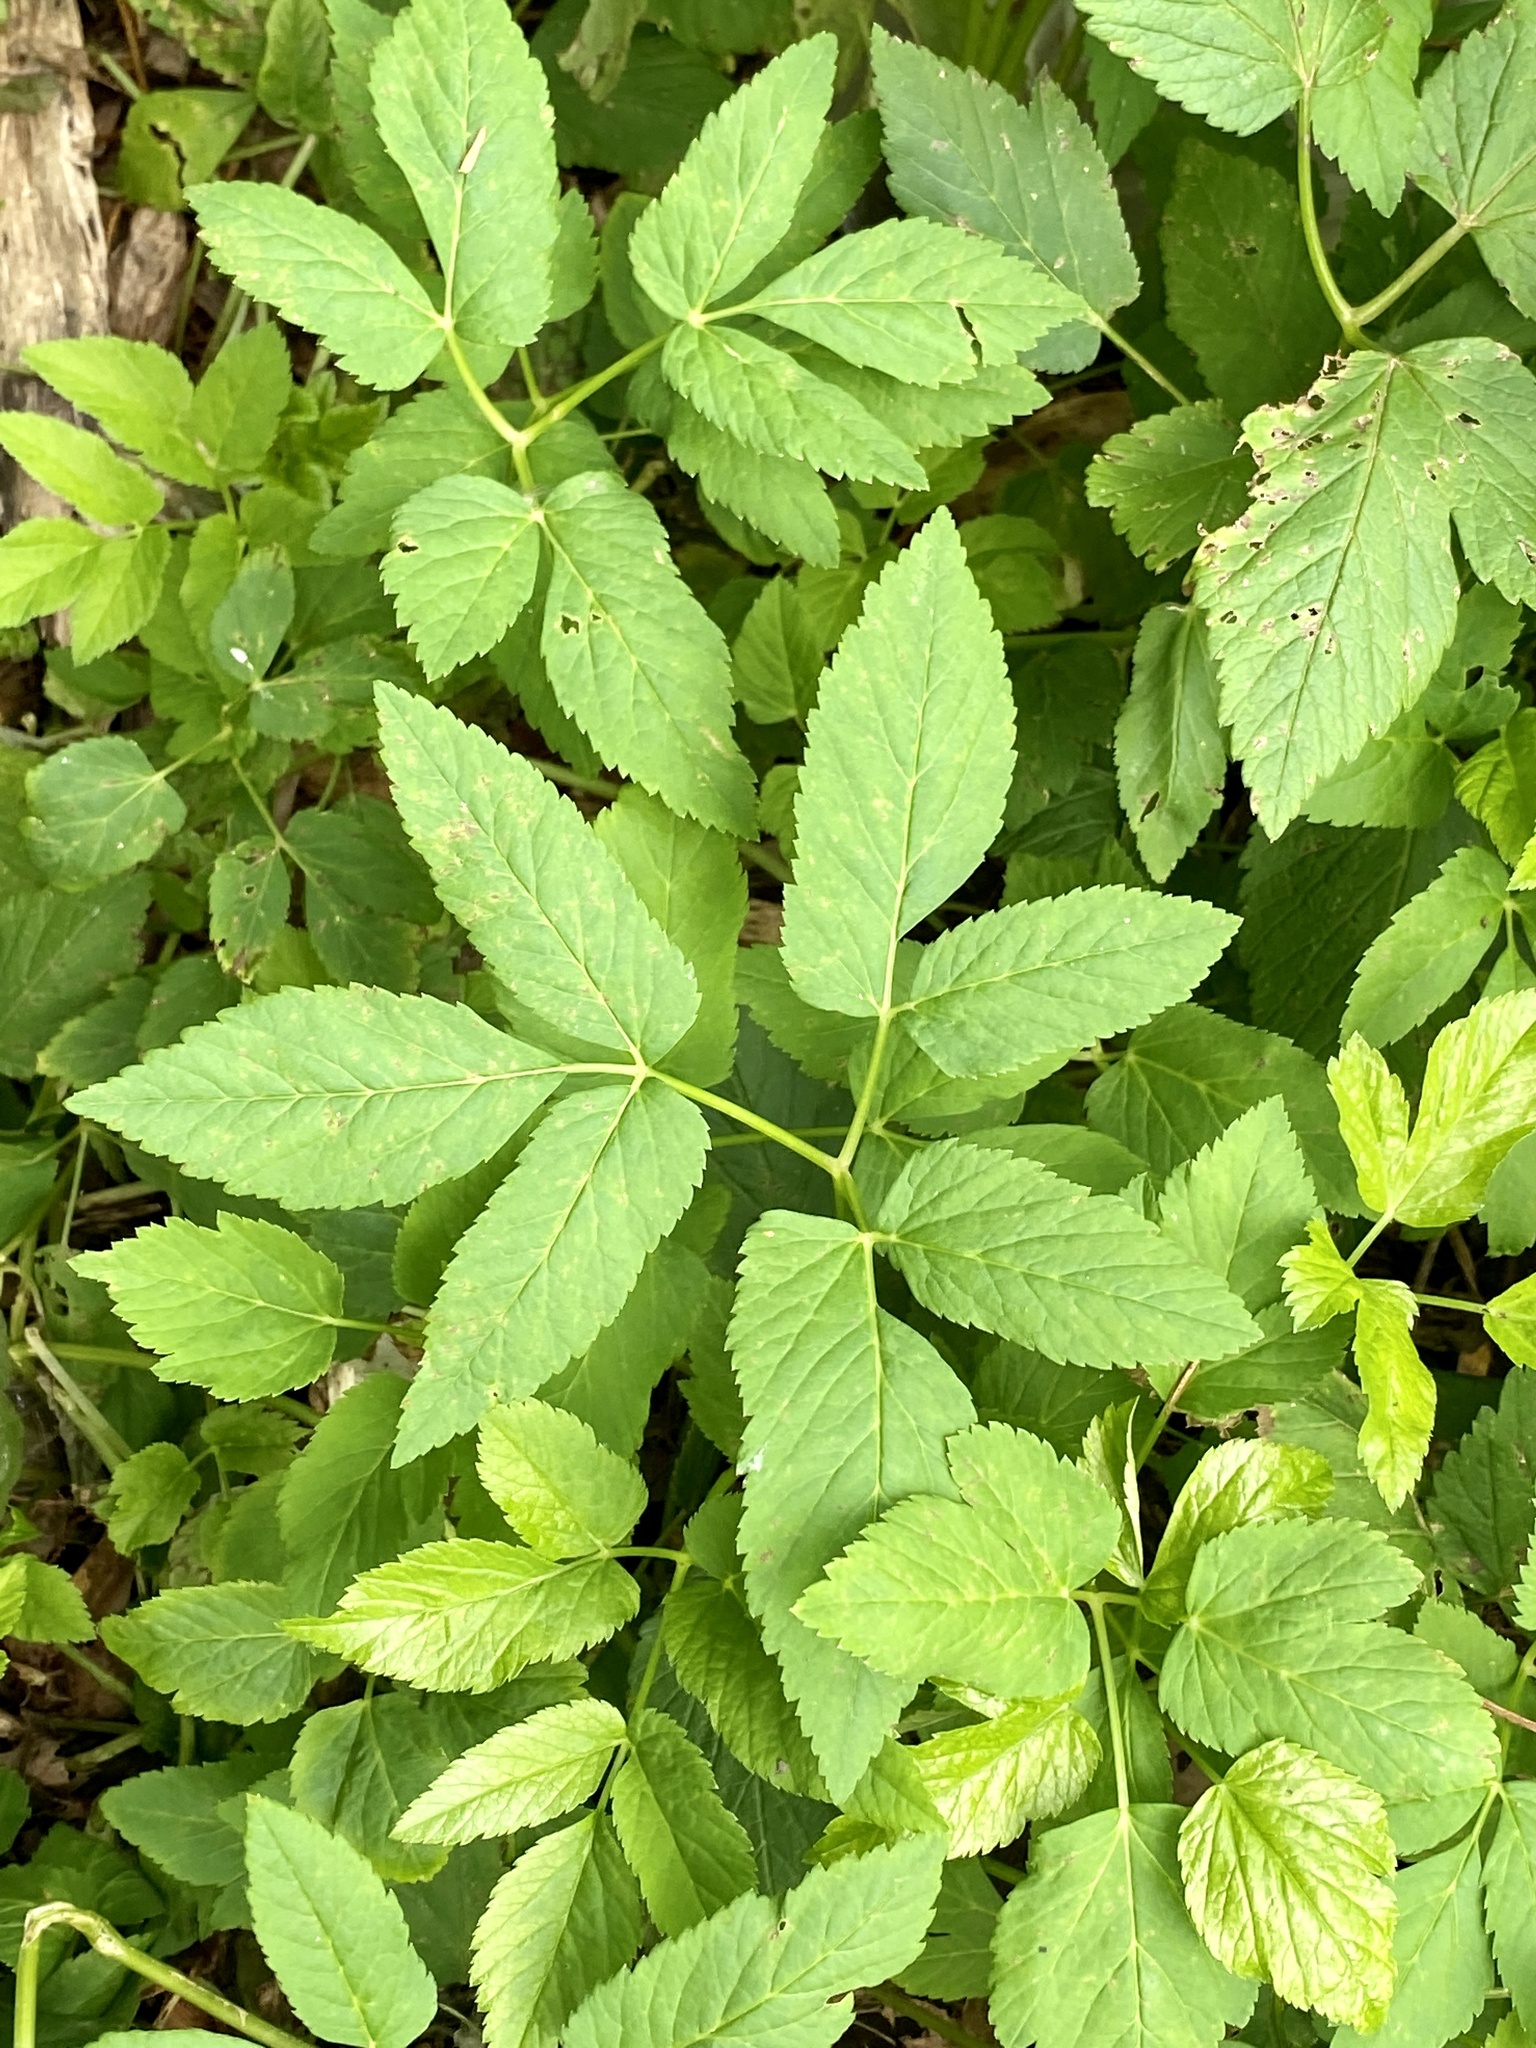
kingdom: Plantae
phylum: Tracheophyta
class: Magnoliopsida
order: Apiales
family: Apiaceae
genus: Aegopodium
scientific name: Aegopodium podagraria
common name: Ground-elder
